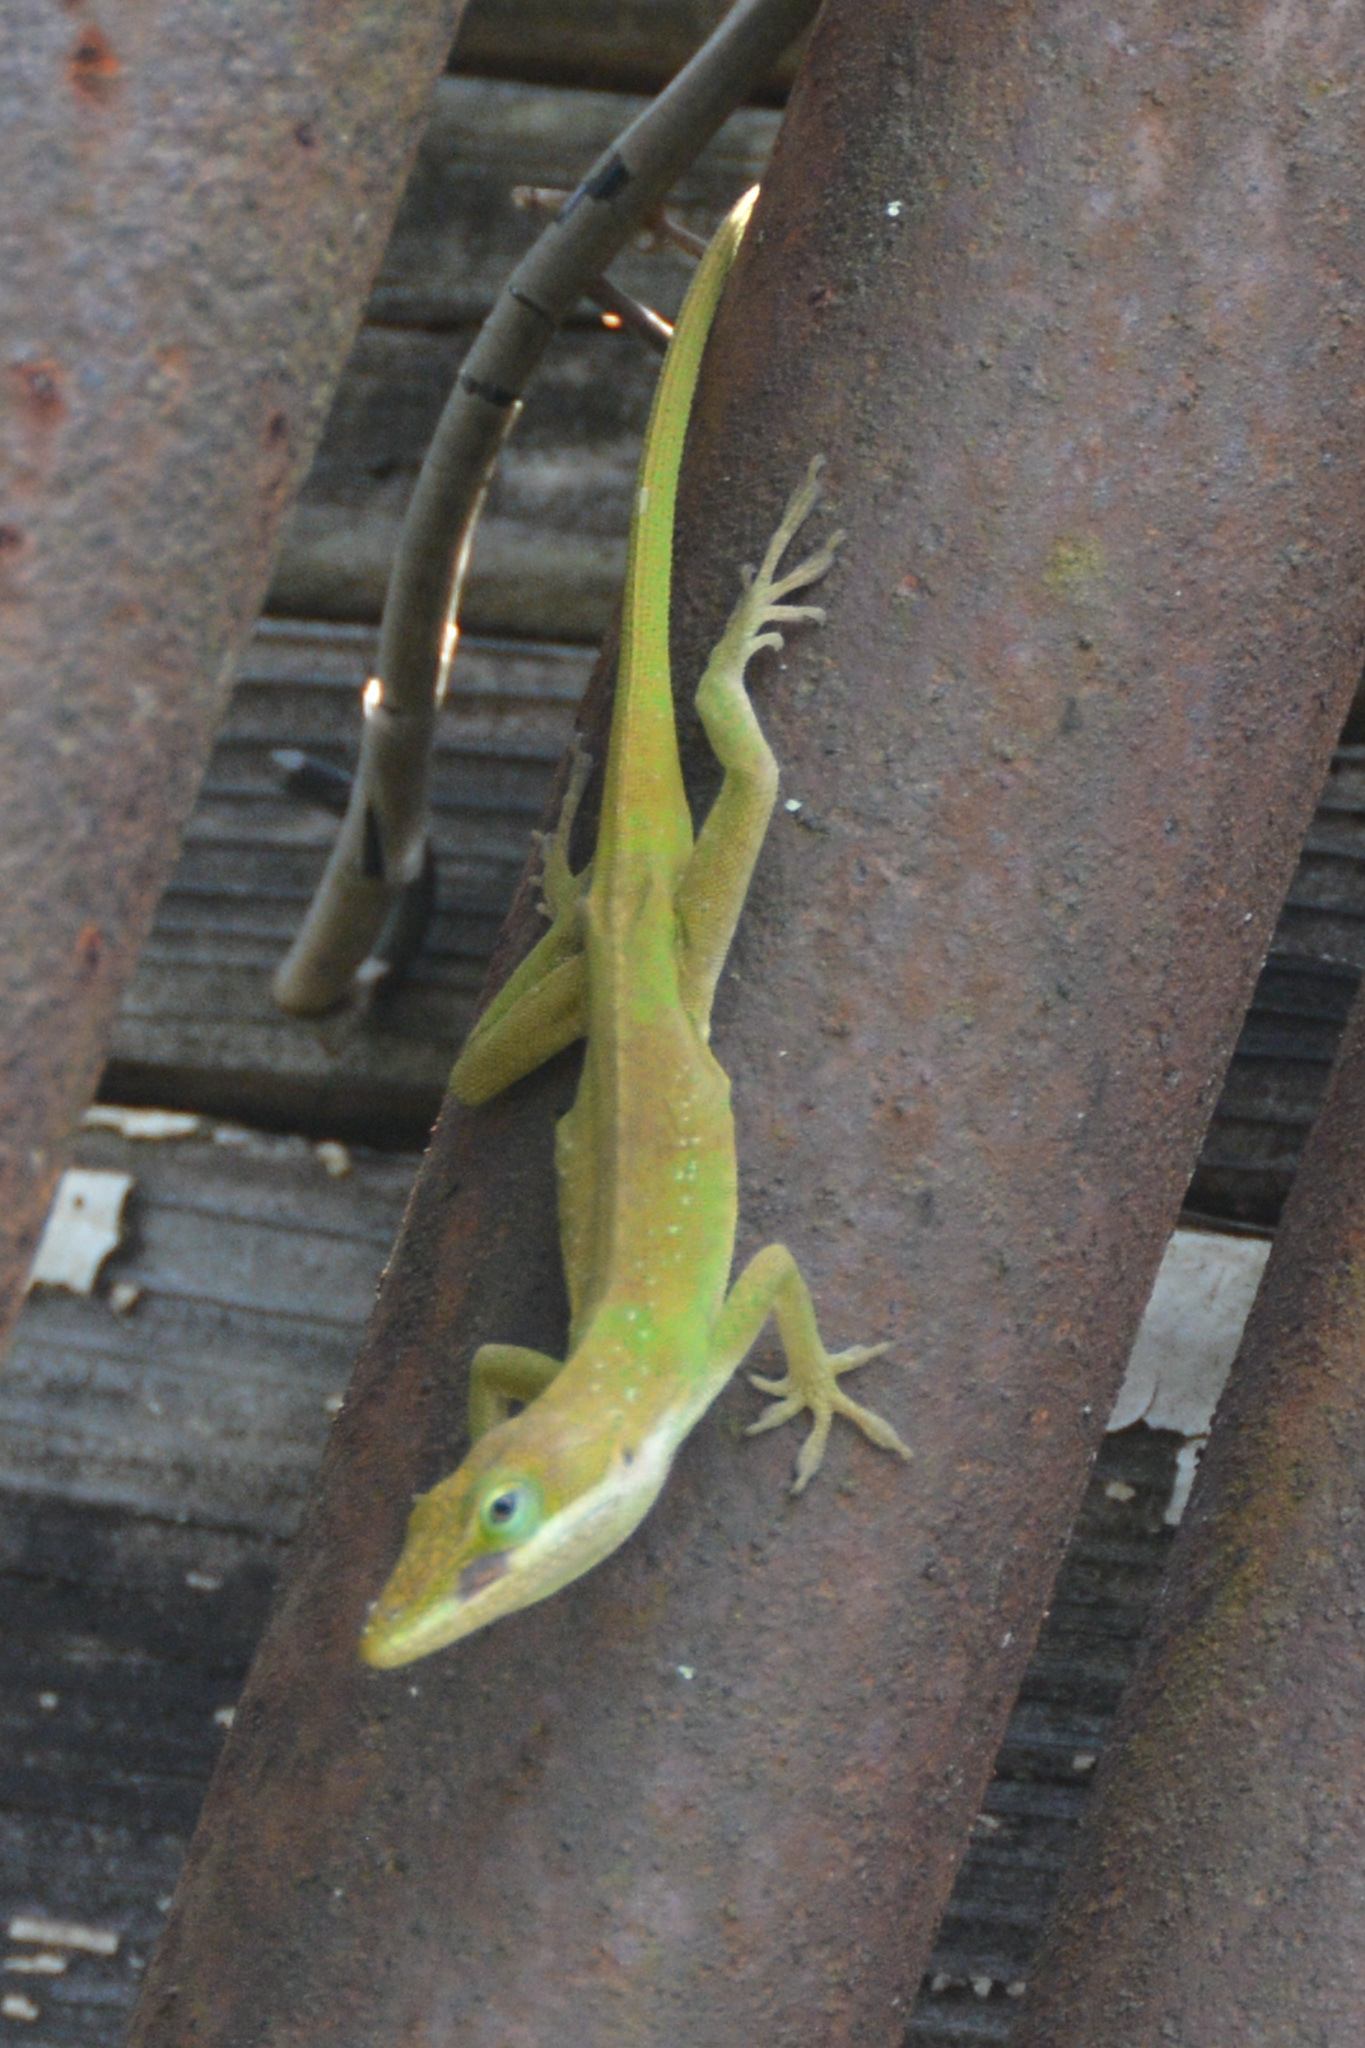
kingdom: Animalia
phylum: Chordata
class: Squamata
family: Dactyloidae
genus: Anolis
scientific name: Anolis carolinensis
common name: Green anole
